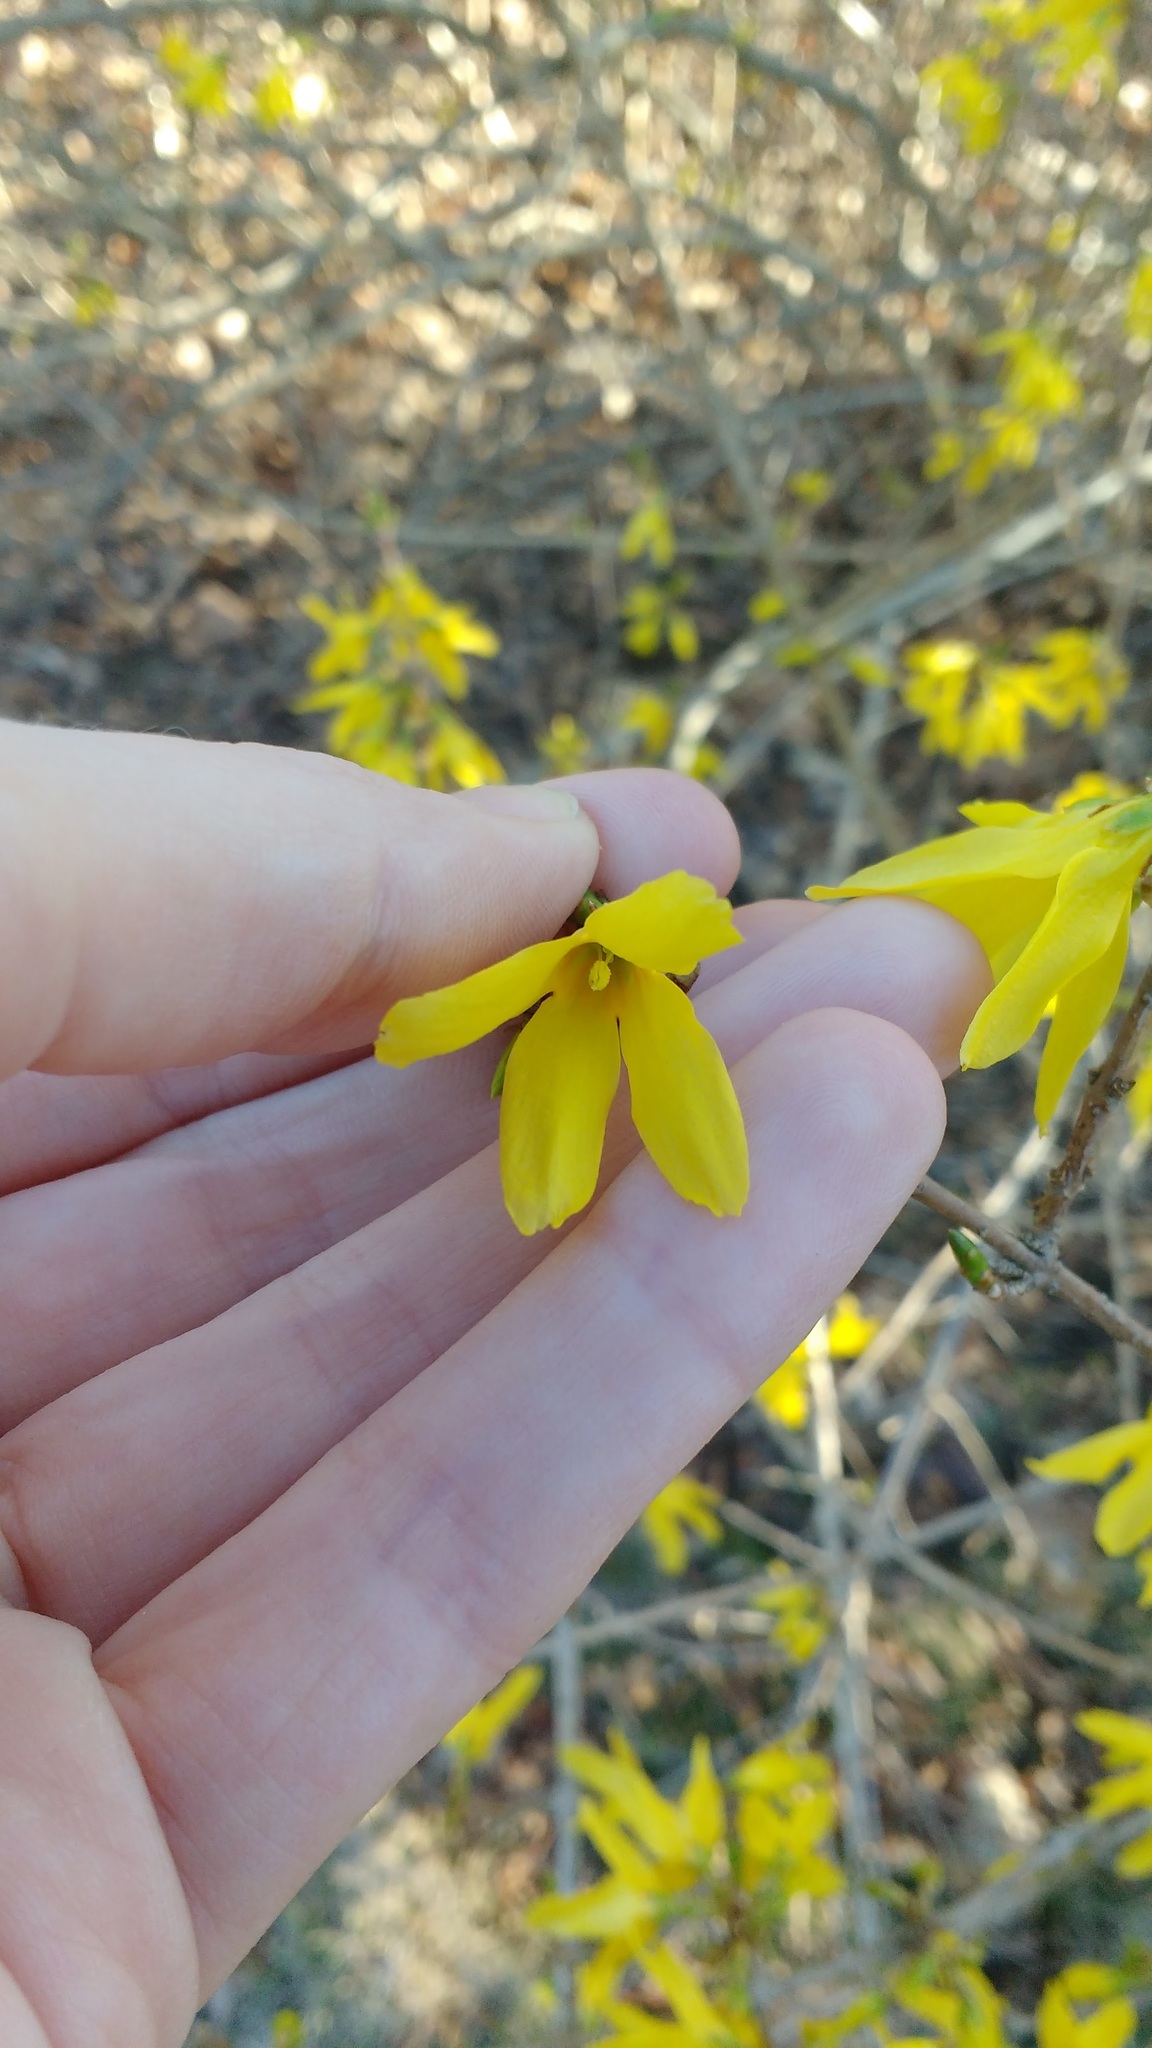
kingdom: Plantae
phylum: Tracheophyta
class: Magnoliopsida
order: Lamiales
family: Oleaceae
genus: Forsythia
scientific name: Forsythia
